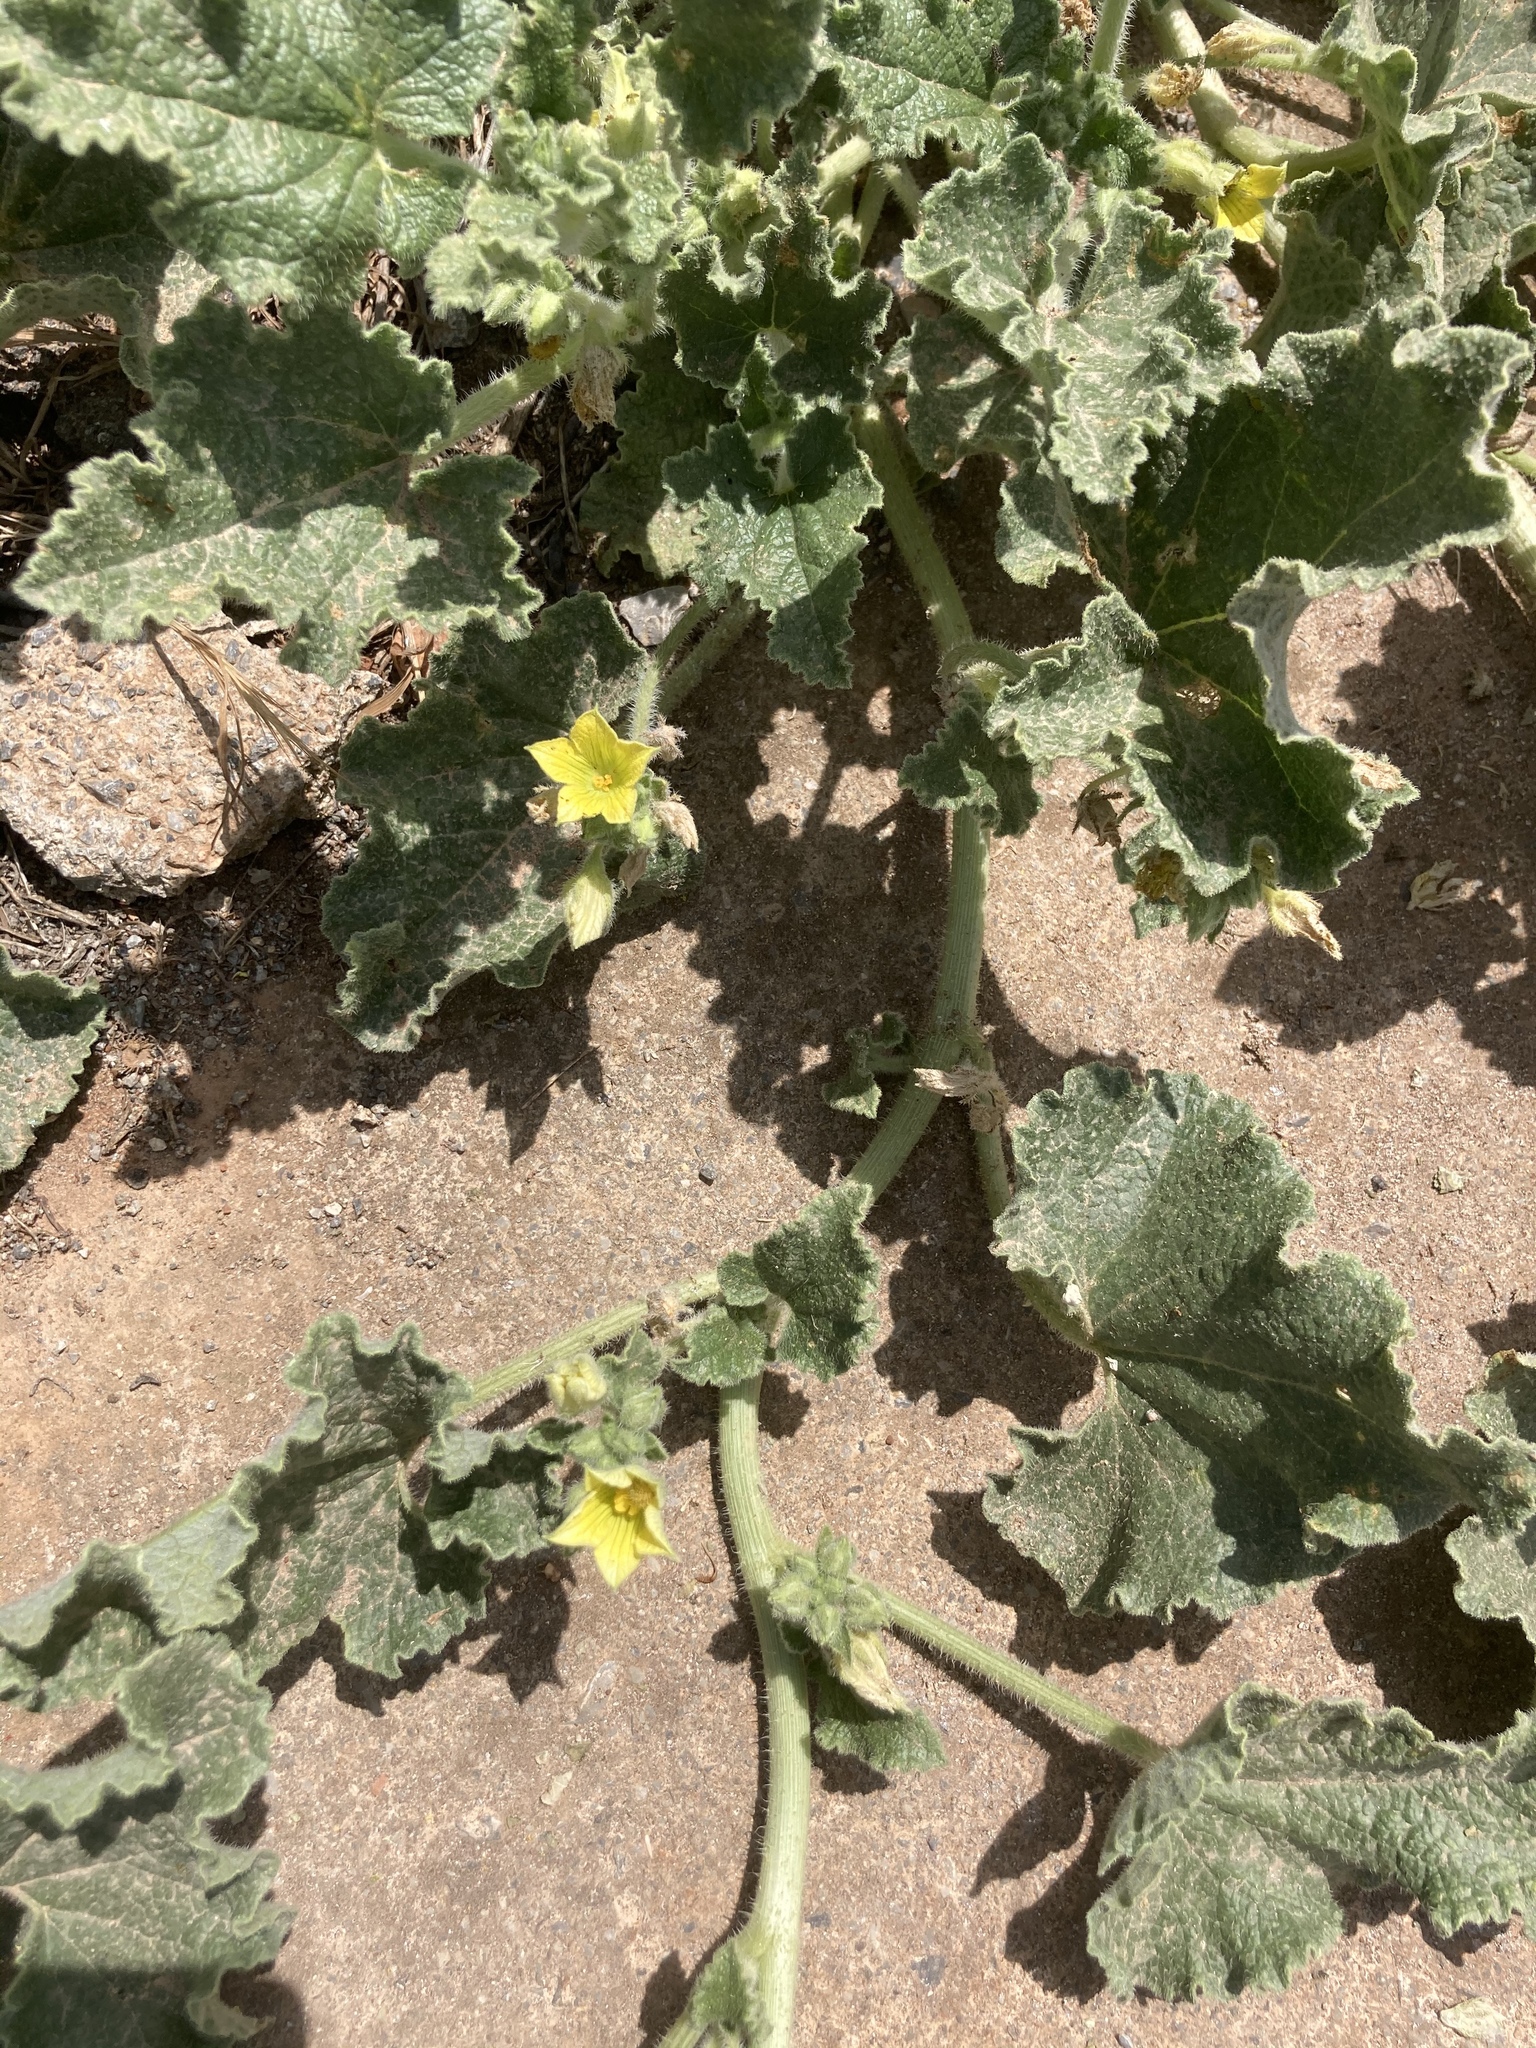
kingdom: Plantae
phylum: Tracheophyta
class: Magnoliopsida
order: Cucurbitales
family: Cucurbitaceae
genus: Ecballium
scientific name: Ecballium elaterium
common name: Squirting cucumber
